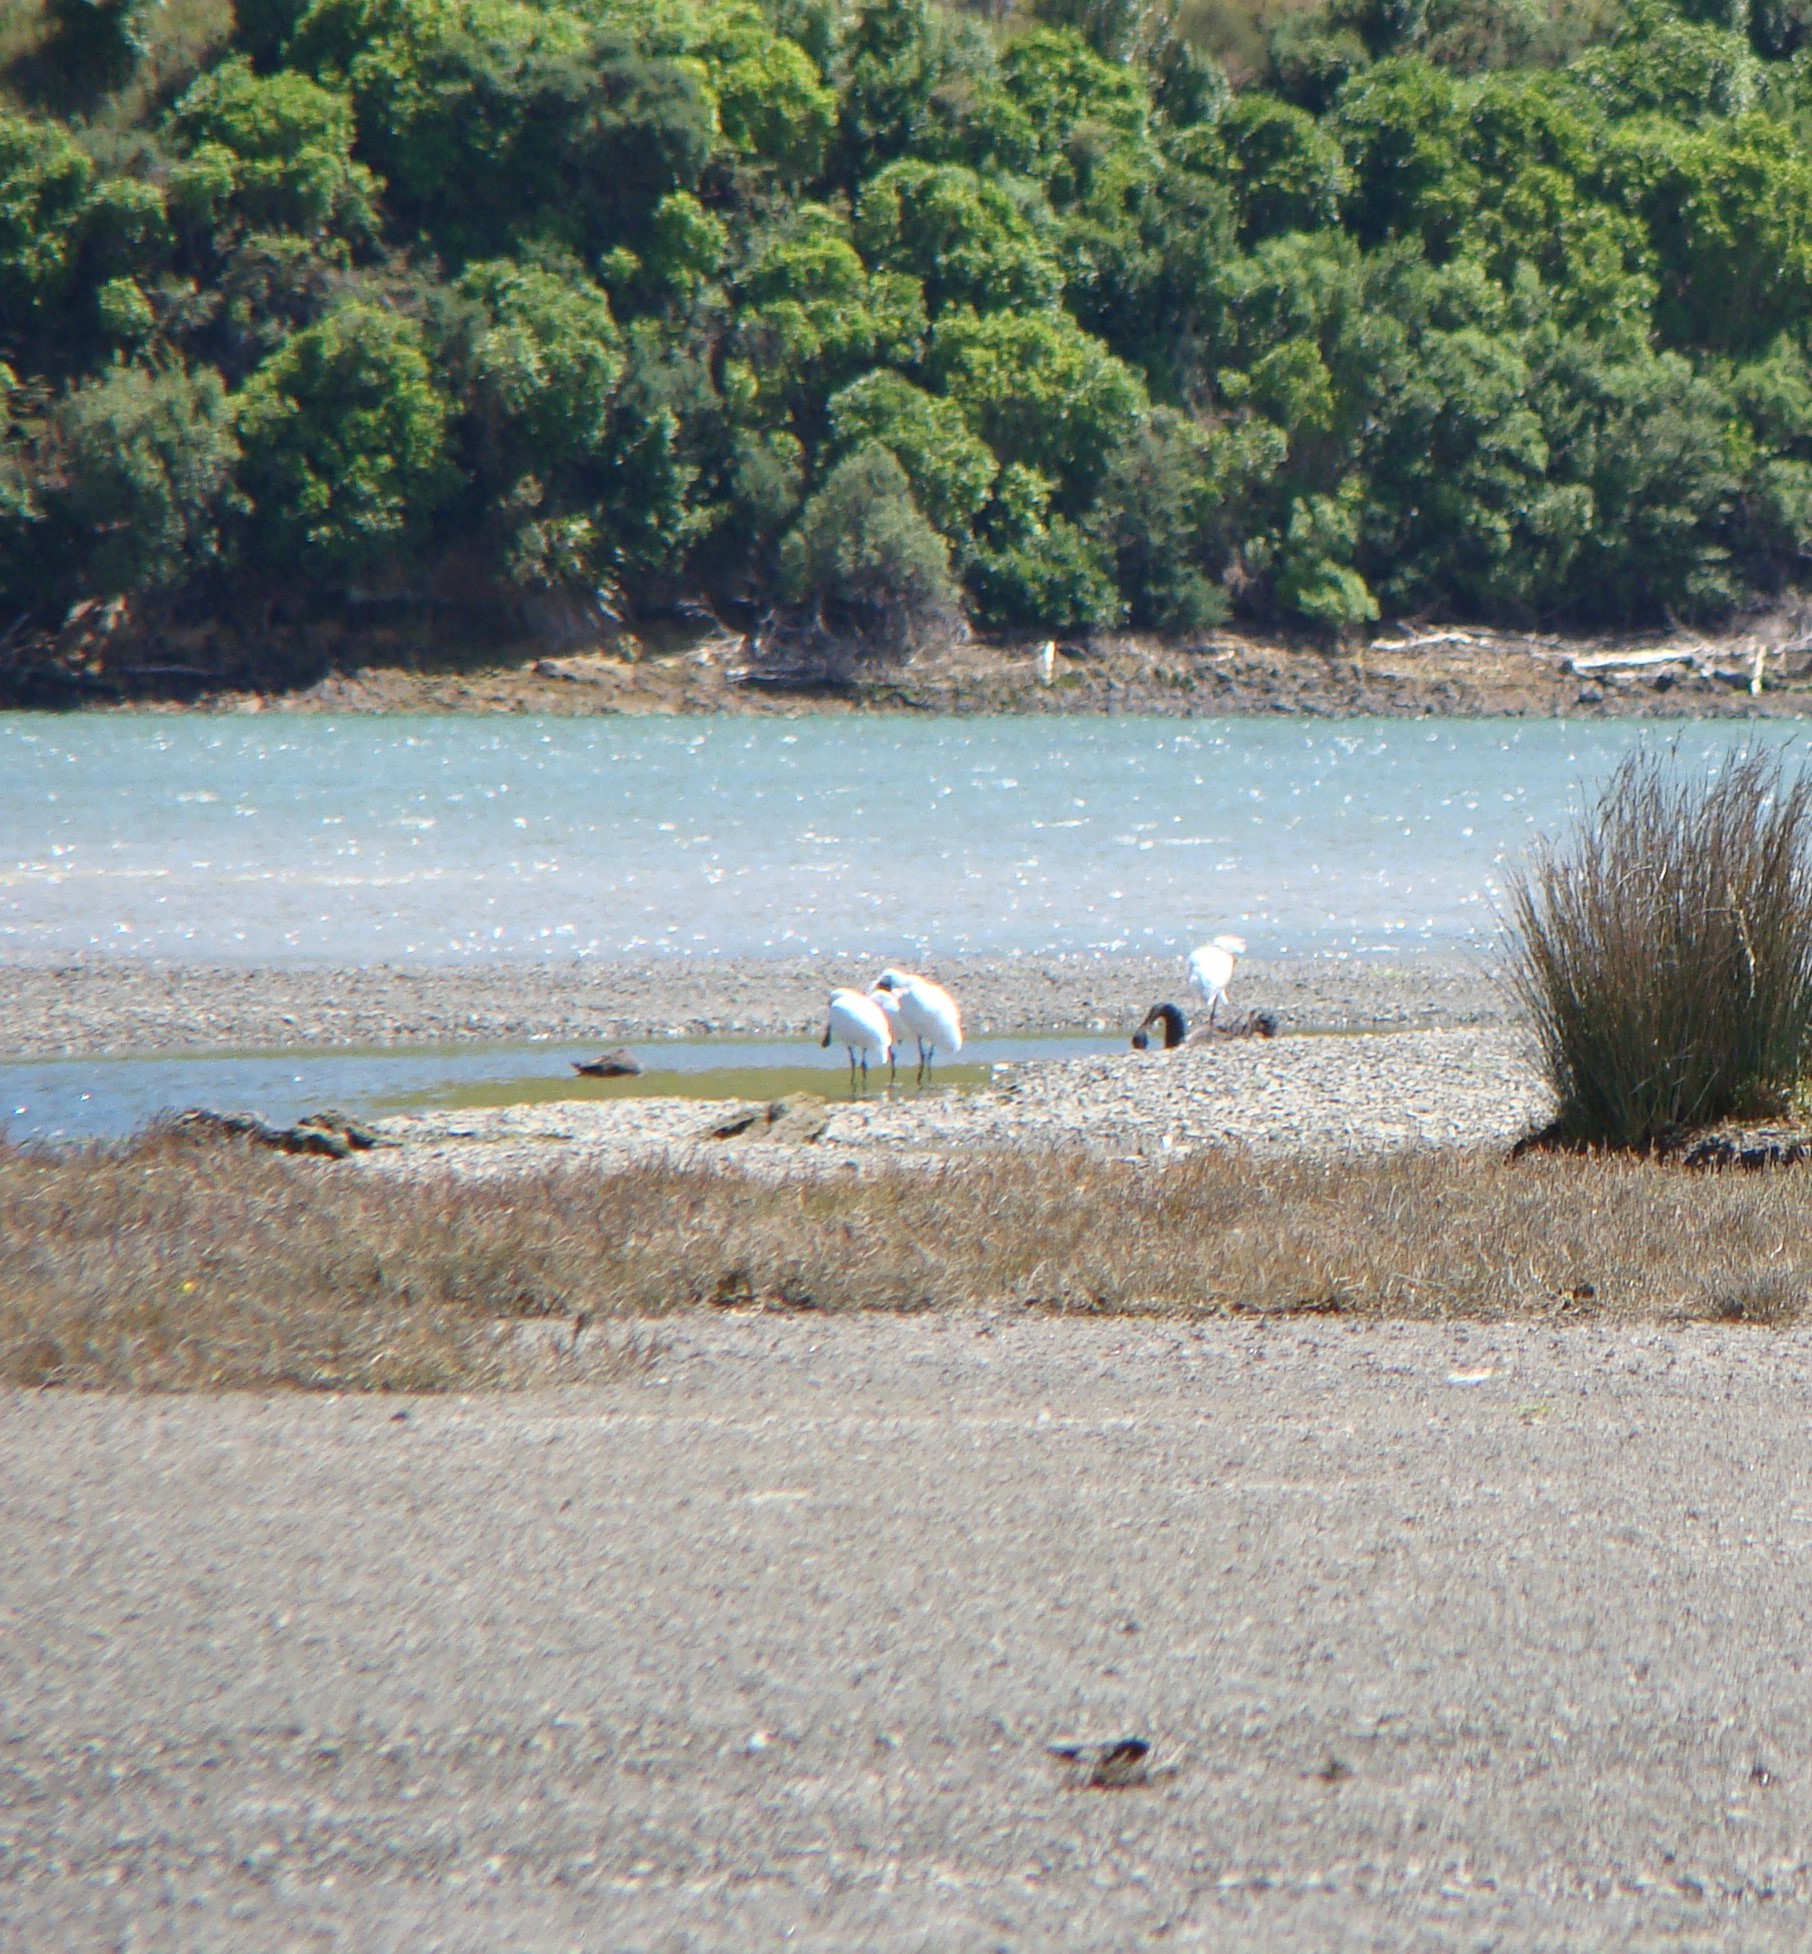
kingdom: Animalia
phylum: Chordata
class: Aves
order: Pelecaniformes
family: Threskiornithidae
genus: Platalea
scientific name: Platalea regia
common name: Royal spoonbill
